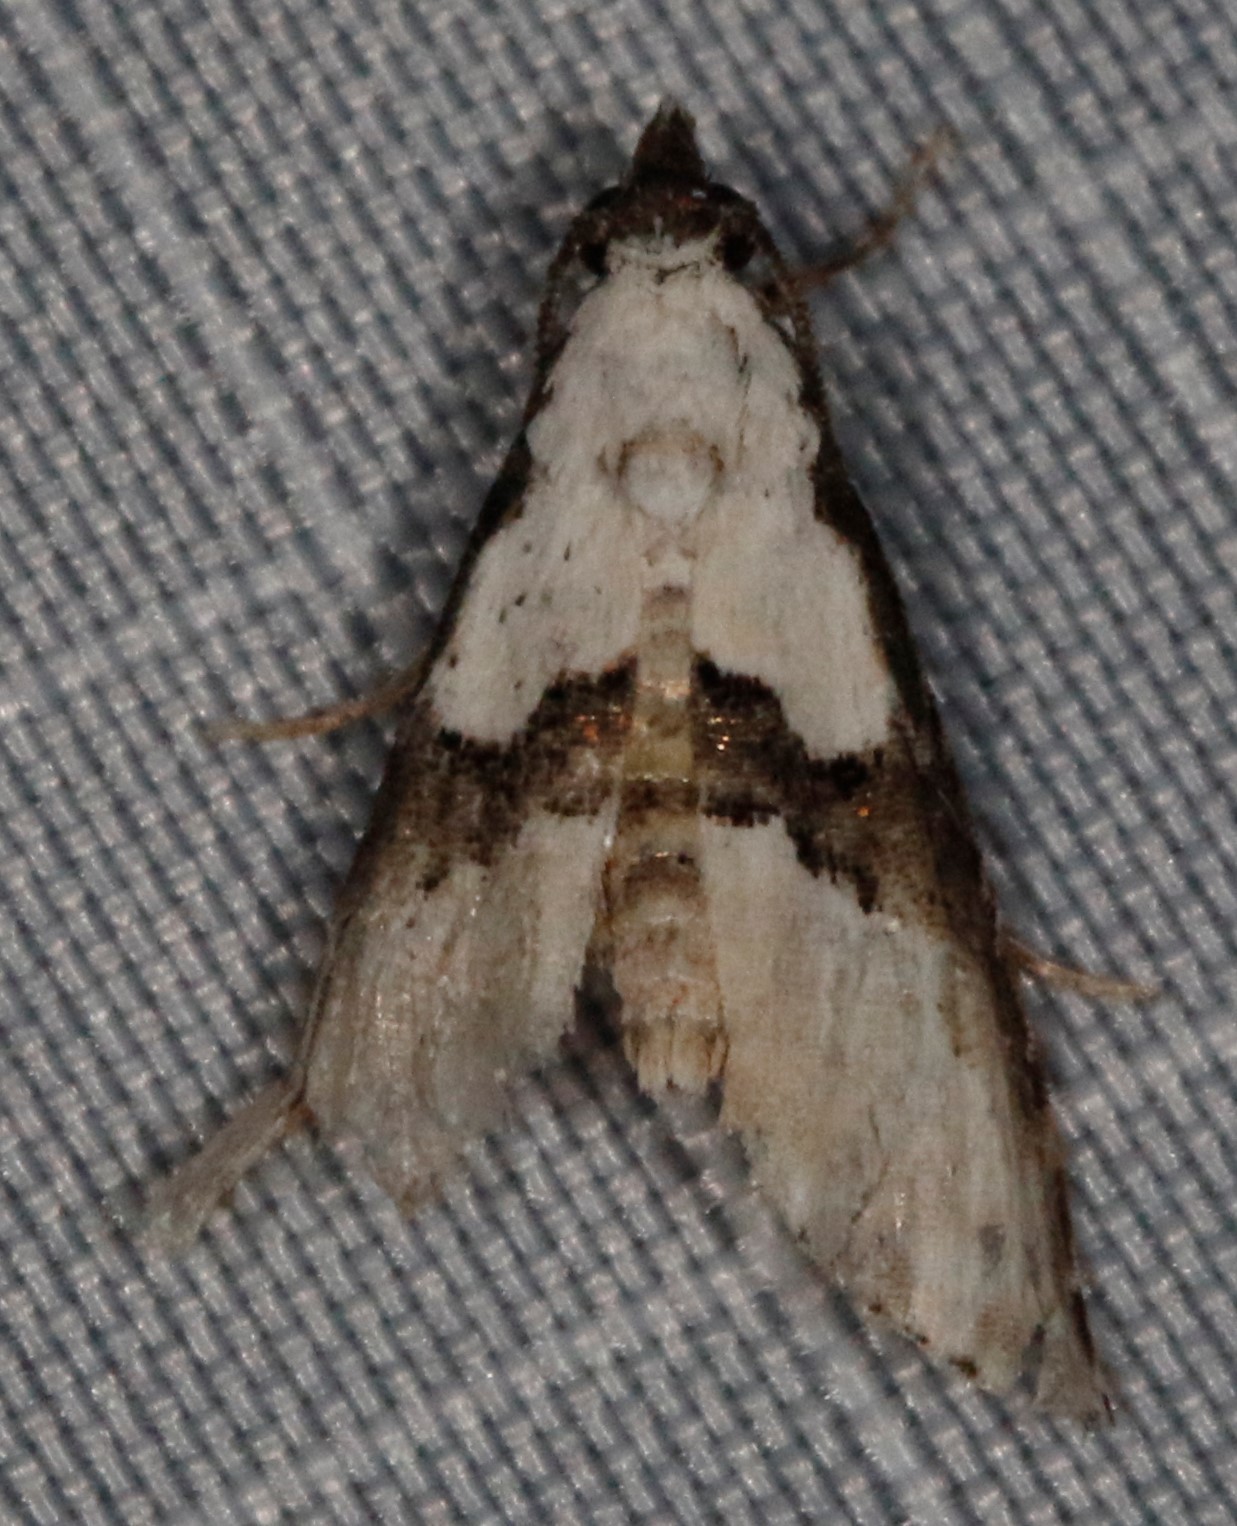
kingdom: Animalia
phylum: Arthropoda
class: Insecta
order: Lepidoptera
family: Noctuidae
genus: Nigetia
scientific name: Nigetia formosalis
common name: Thin-winged owlet
